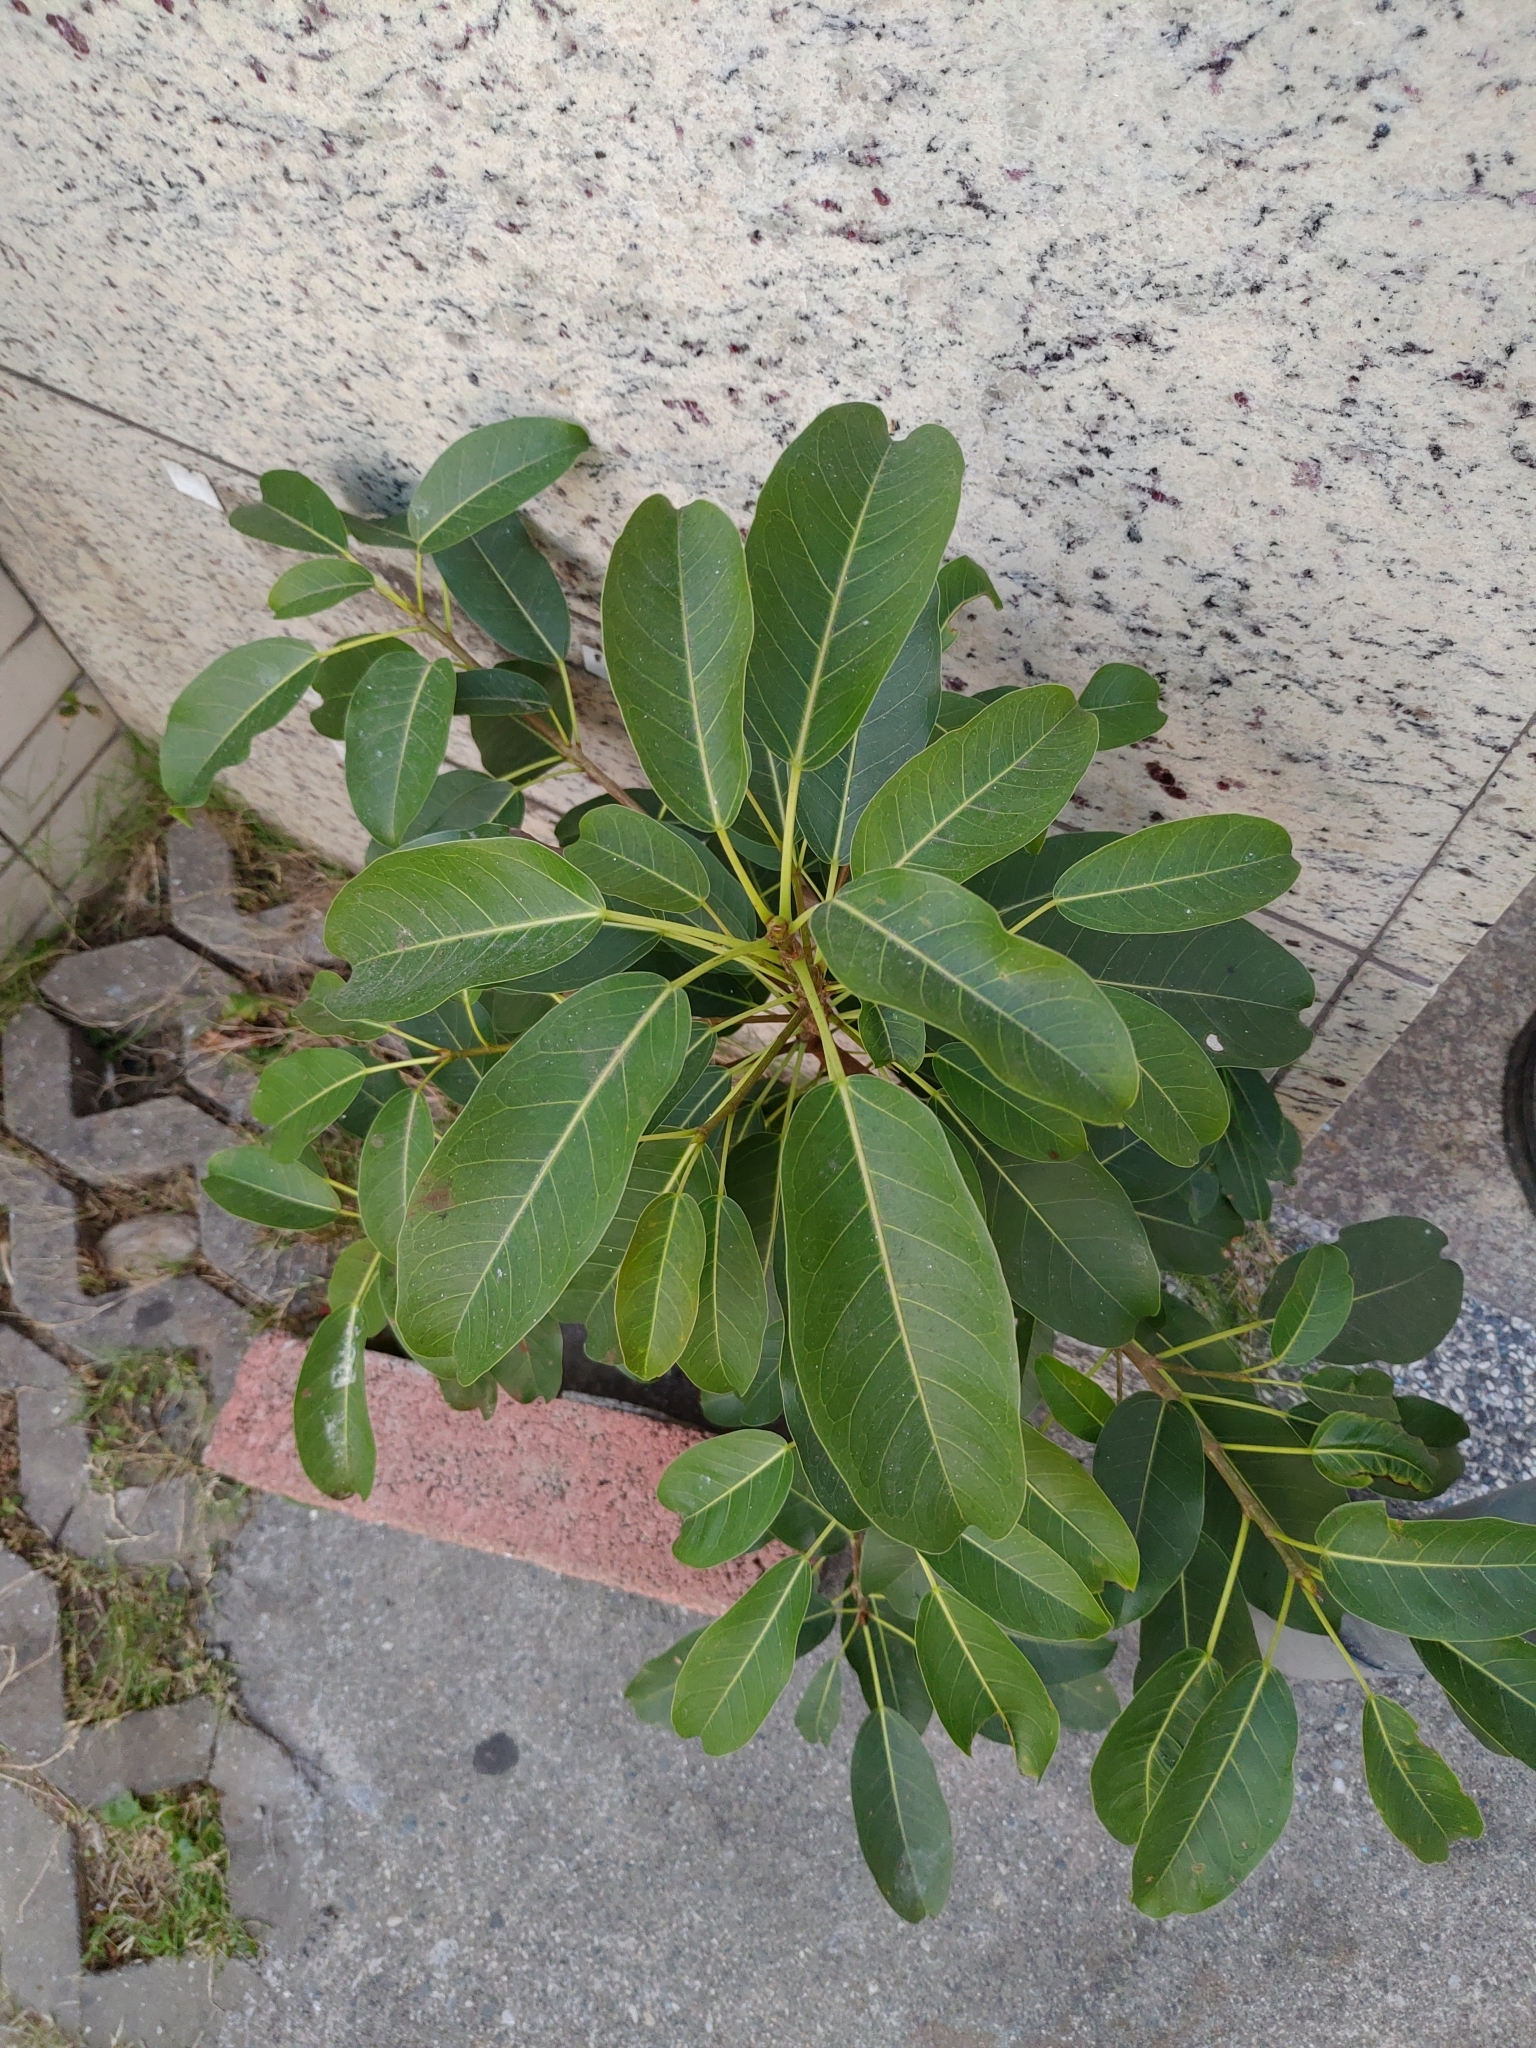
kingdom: Plantae
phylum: Tracheophyta
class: Magnoliopsida
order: Rosales
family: Moraceae
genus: Ficus
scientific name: Ficus subpisocarpa
